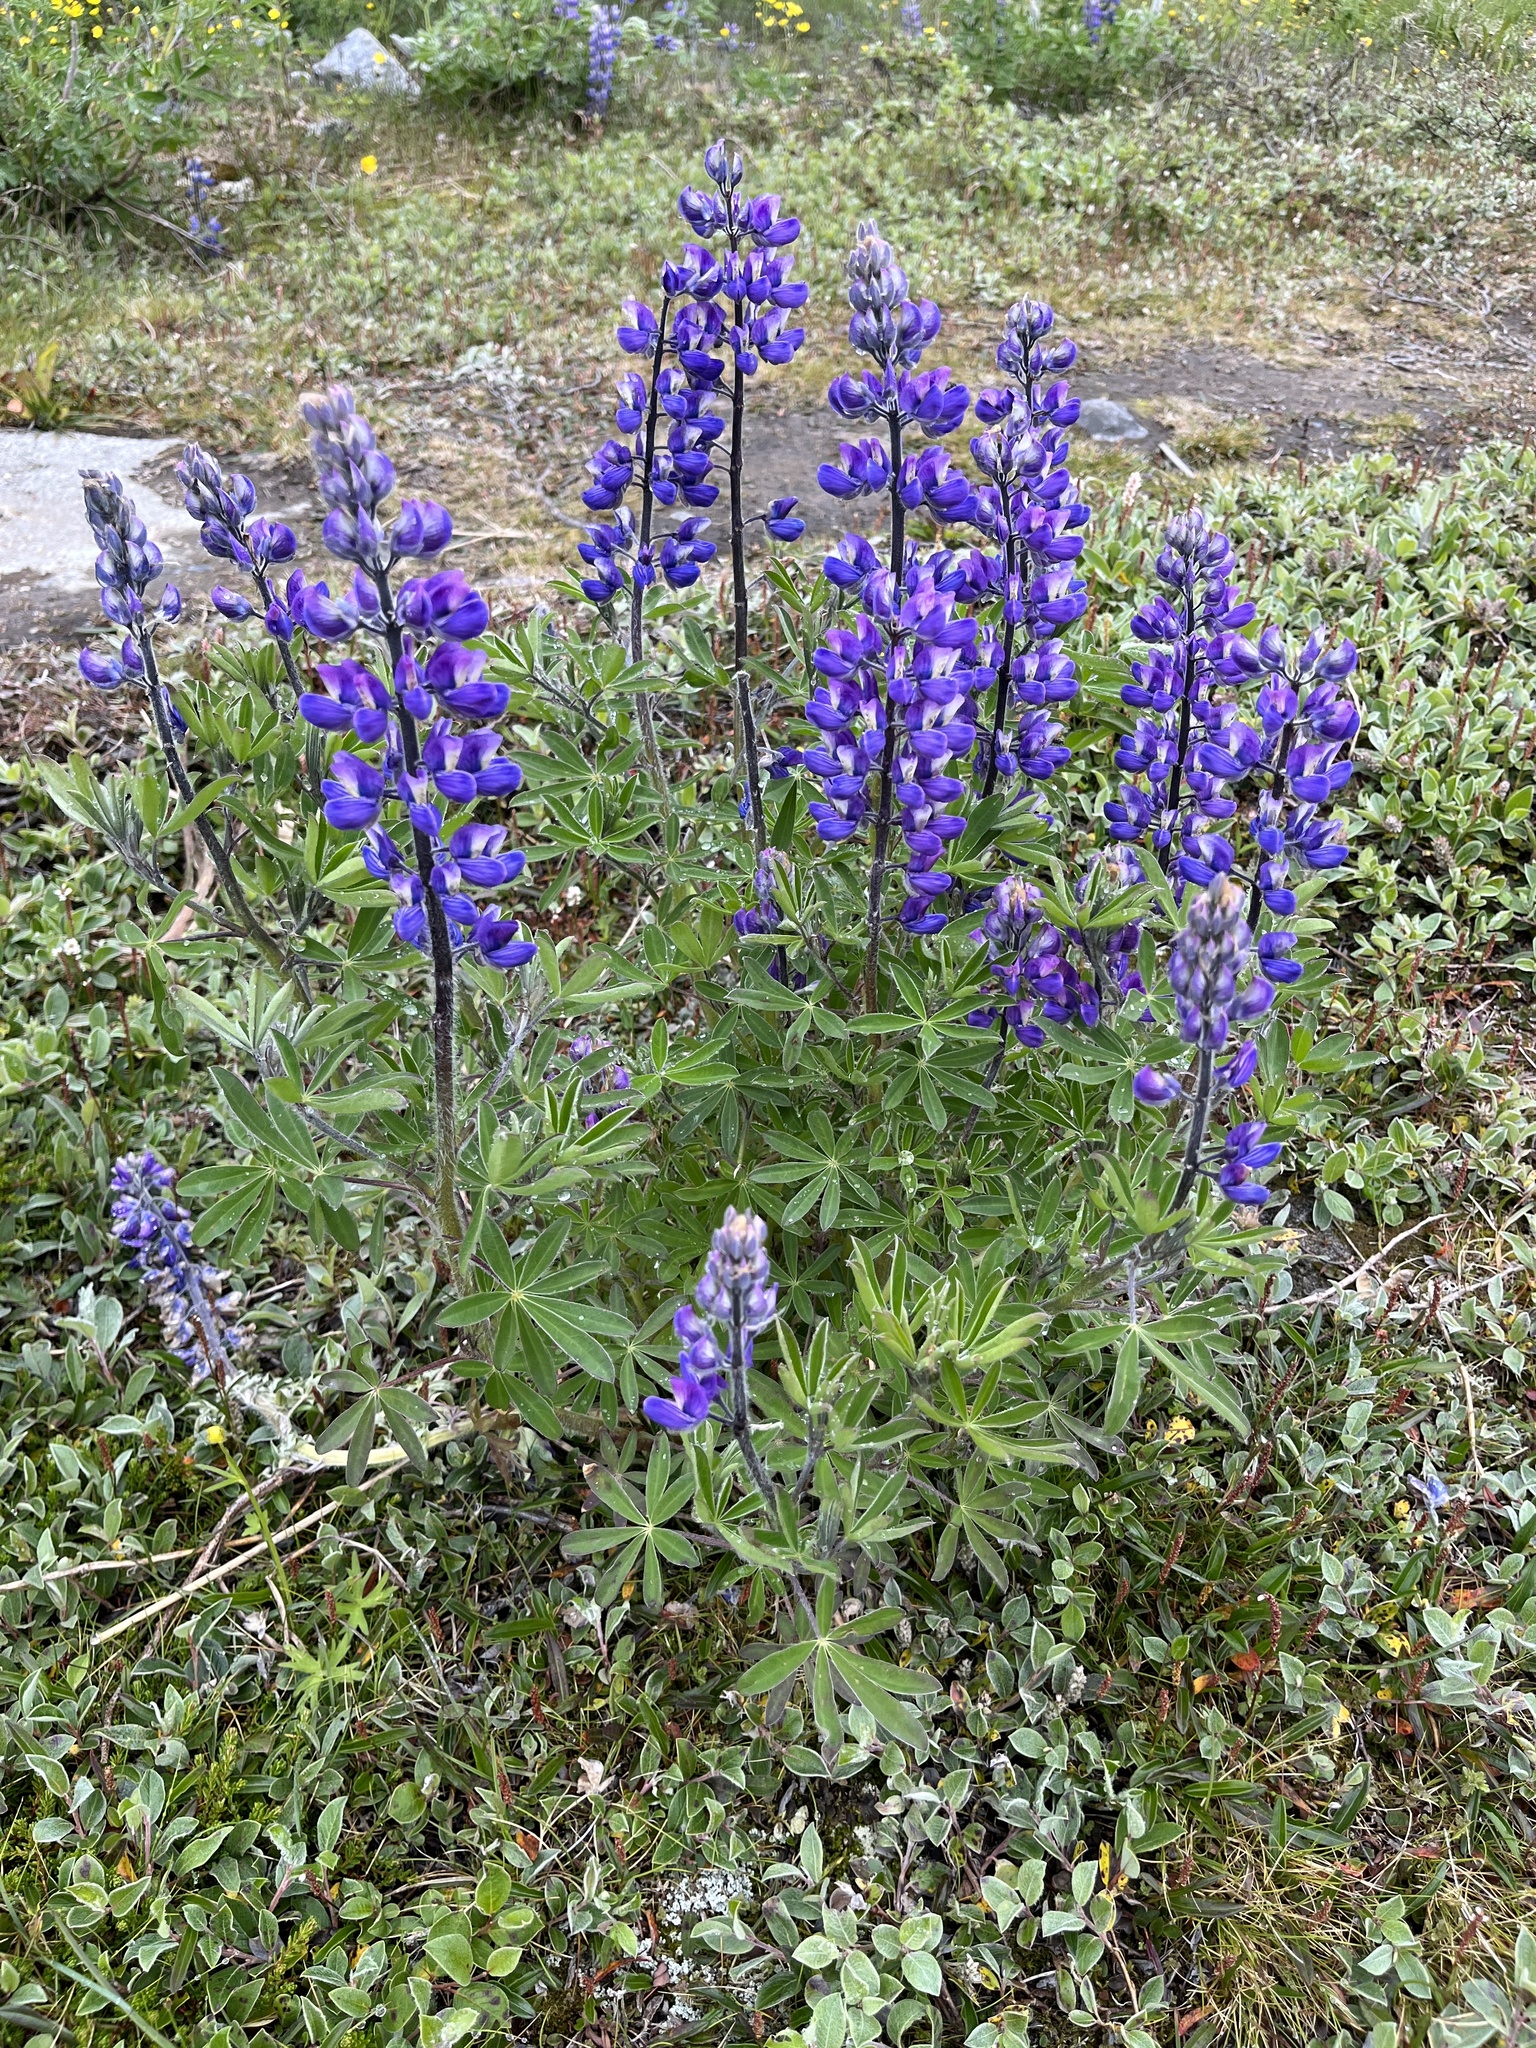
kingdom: Plantae
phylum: Tracheophyta
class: Magnoliopsida
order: Fabales
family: Fabaceae
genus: Lupinus
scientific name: Lupinus nootkatensis
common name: Nootka lupine
